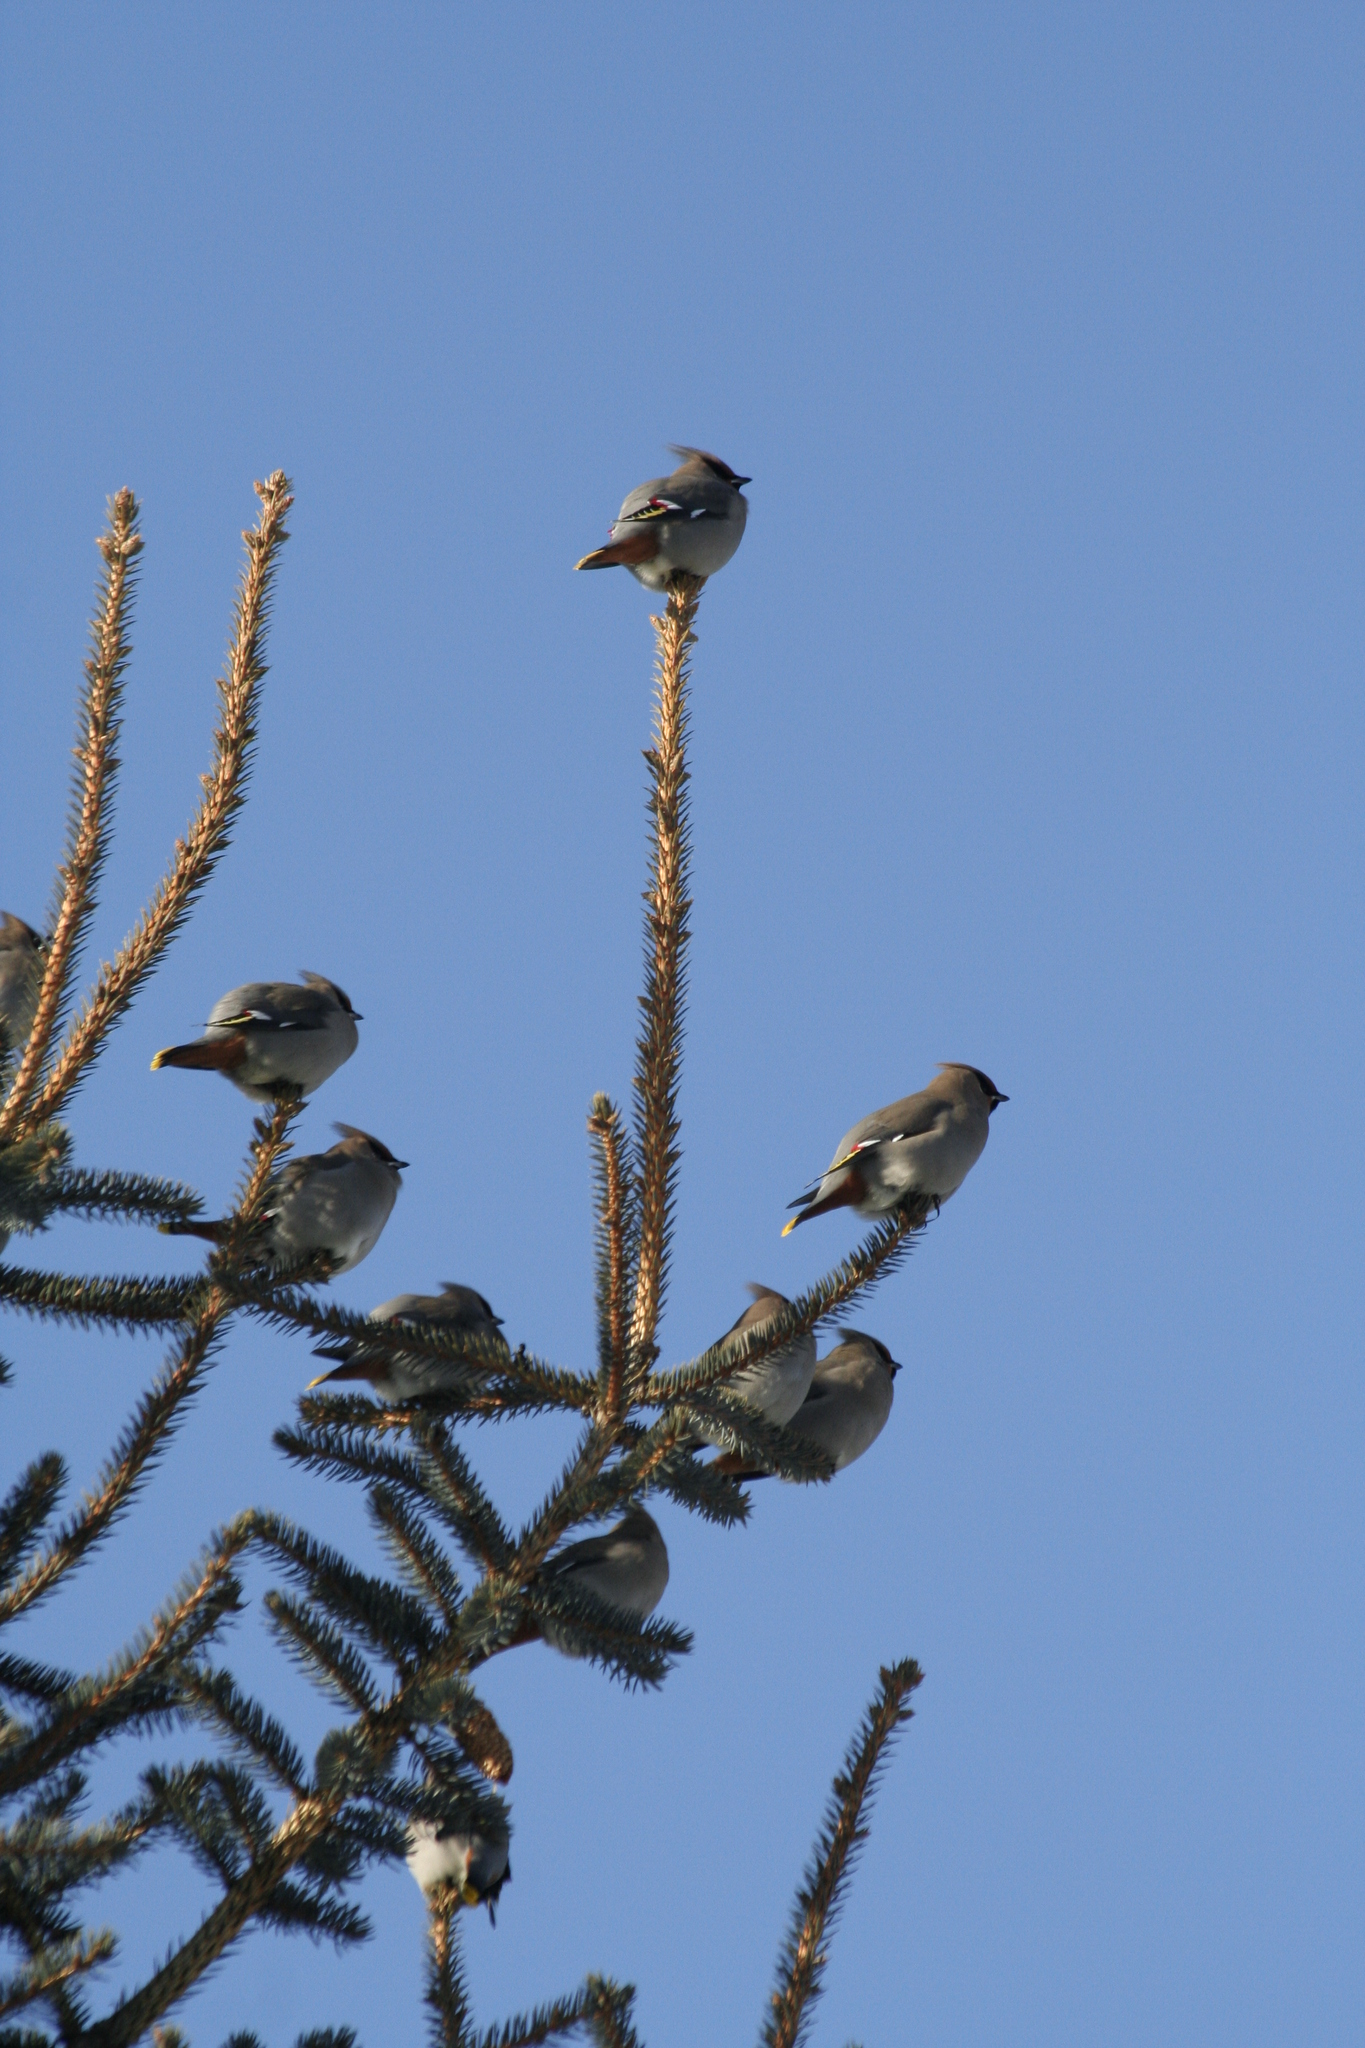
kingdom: Animalia
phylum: Chordata
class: Aves
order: Passeriformes
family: Bombycillidae
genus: Bombycilla
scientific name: Bombycilla garrulus
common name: Bohemian waxwing
